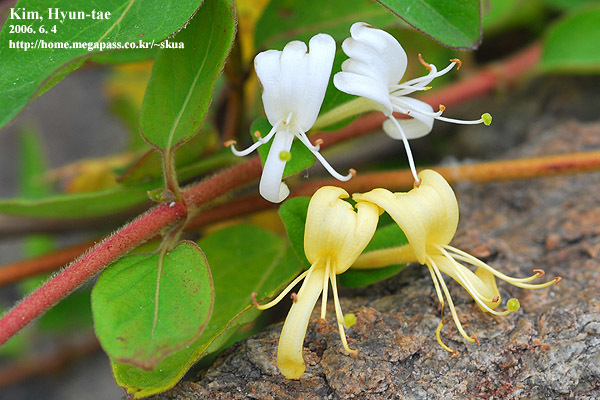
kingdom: Plantae
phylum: Tracheophyta
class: Magnoliopsida
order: Dipsacales
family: Caprifoliaceae
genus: Lonicera
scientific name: Lonicera japonica
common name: Japanese honeysuckle
